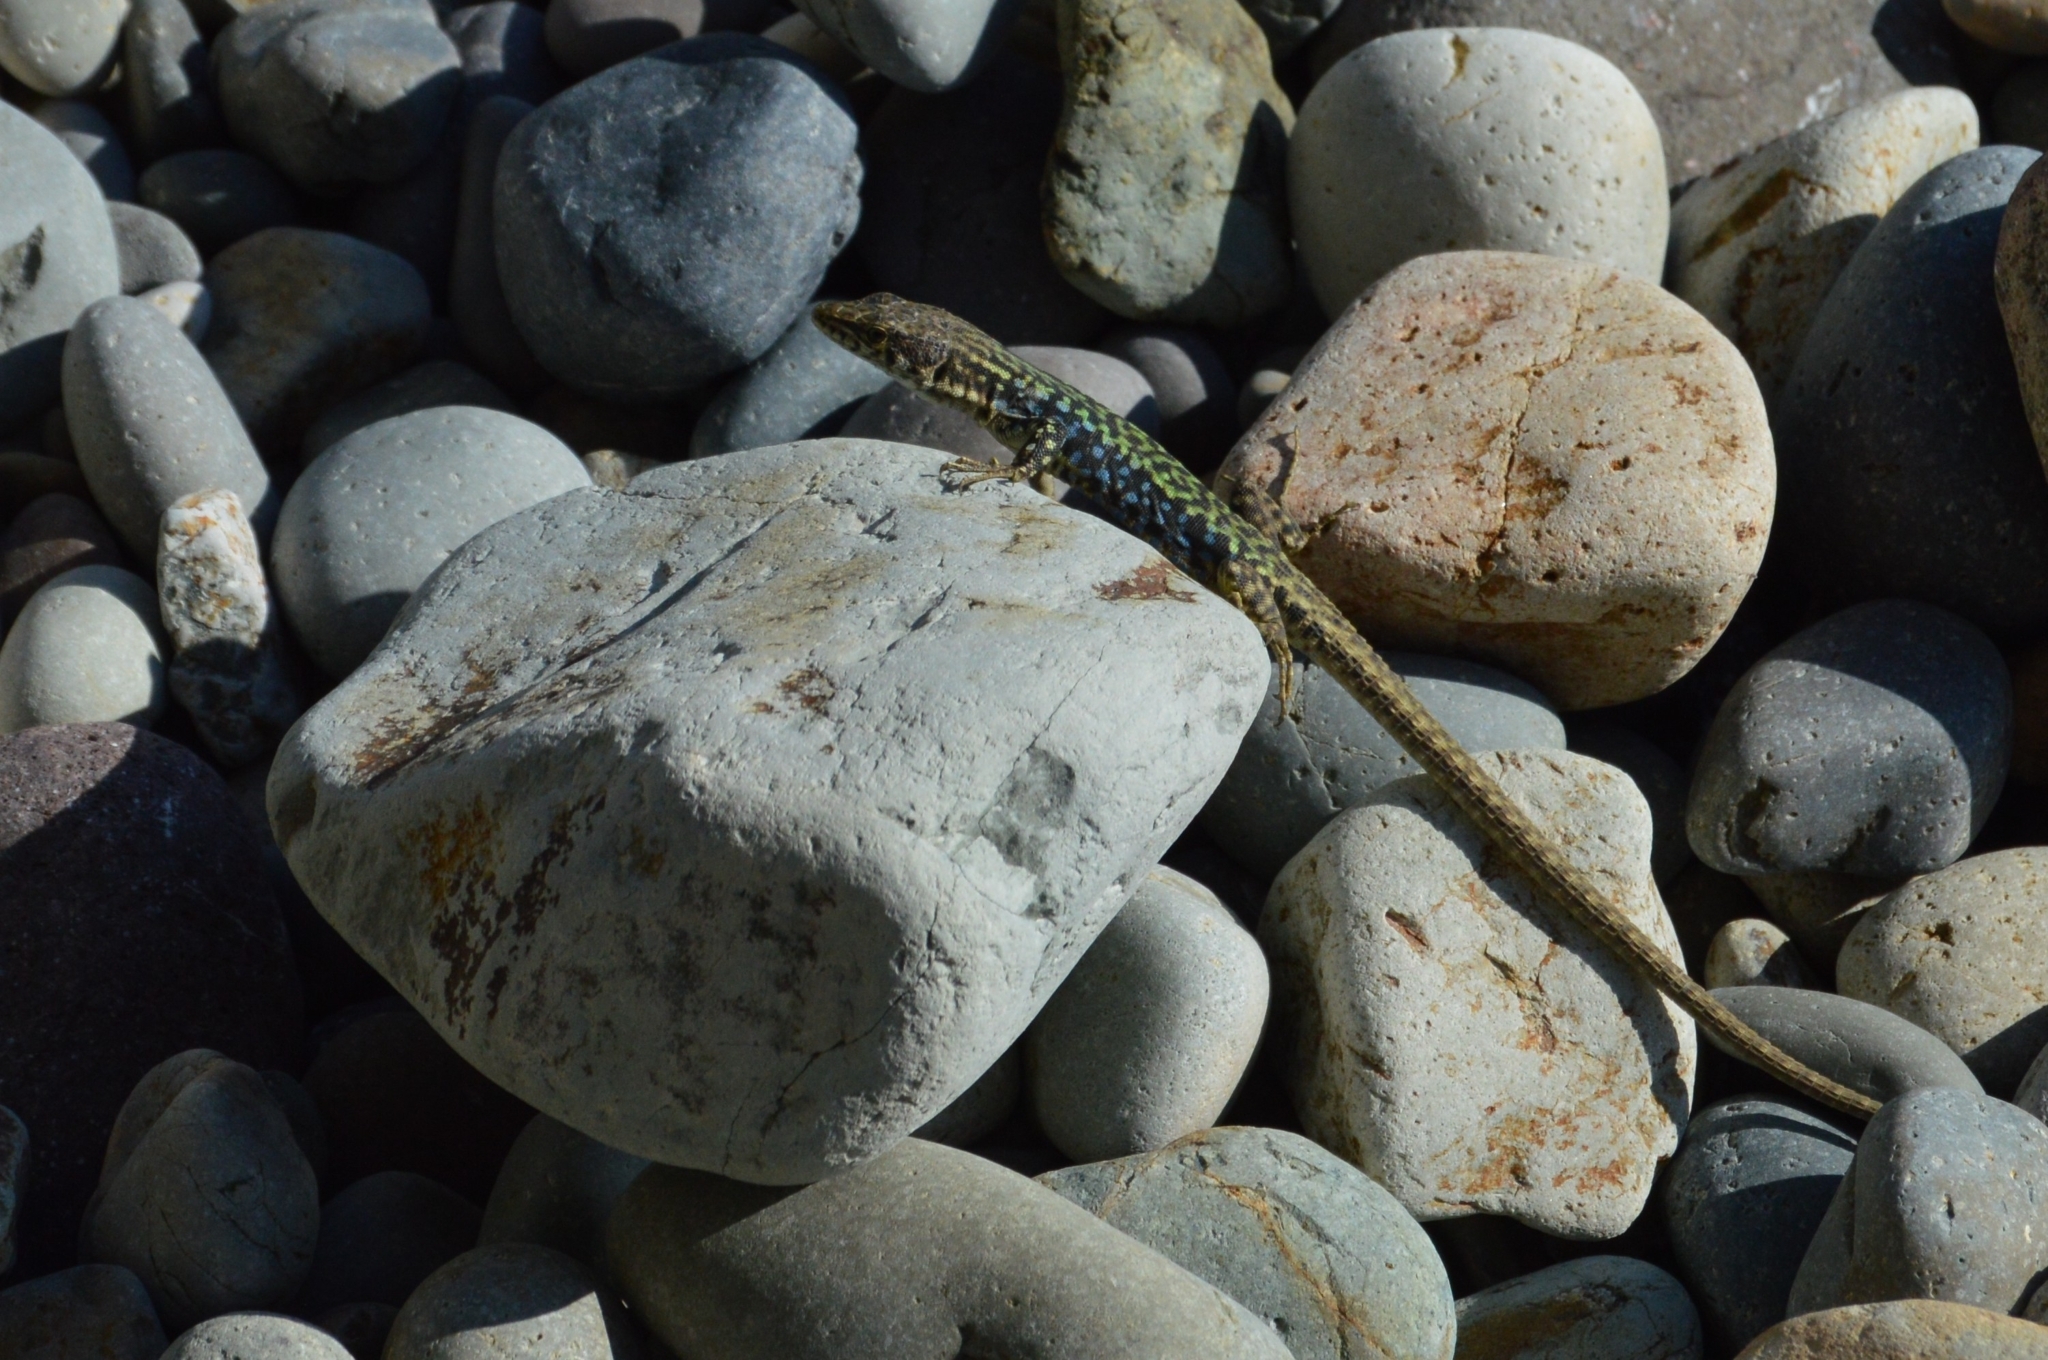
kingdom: Animalia
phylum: Chordata
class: Squamata
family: Lacertidae
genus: Darevskia
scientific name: Darevskia lindholmi
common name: Crimean rock lizard
